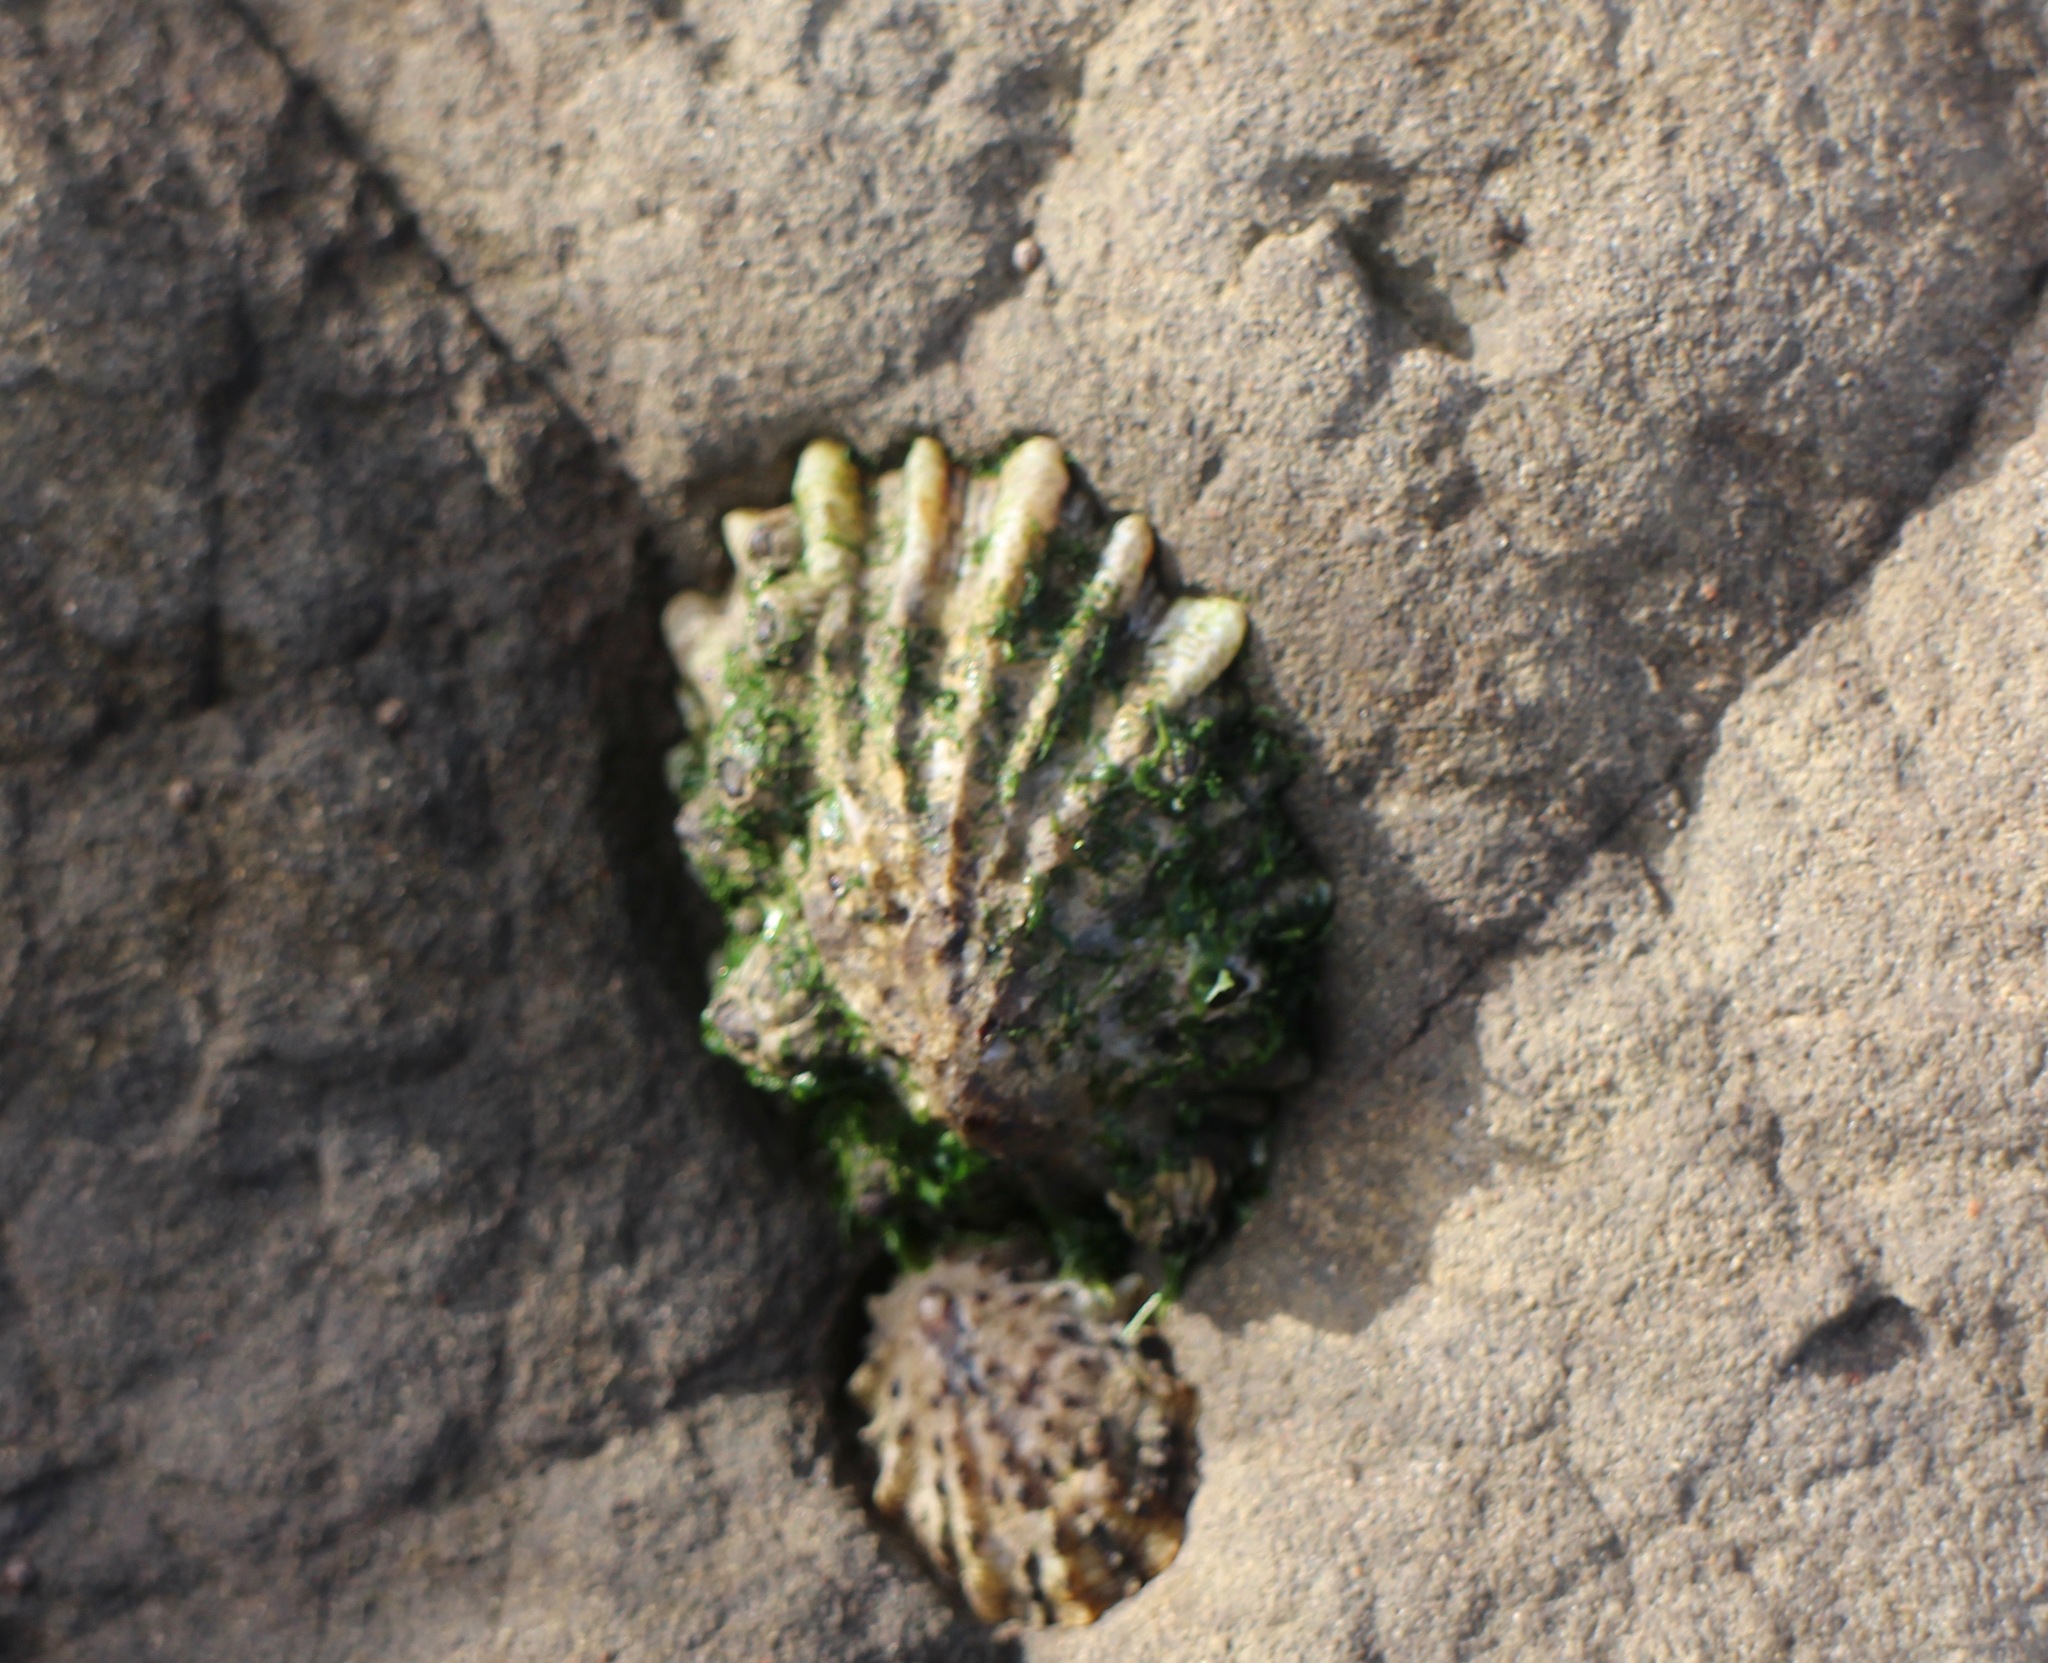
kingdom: Animalia
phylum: Mollusca
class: Gastropoda
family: Lottiidae
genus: Lottia
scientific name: Lottia scabra
